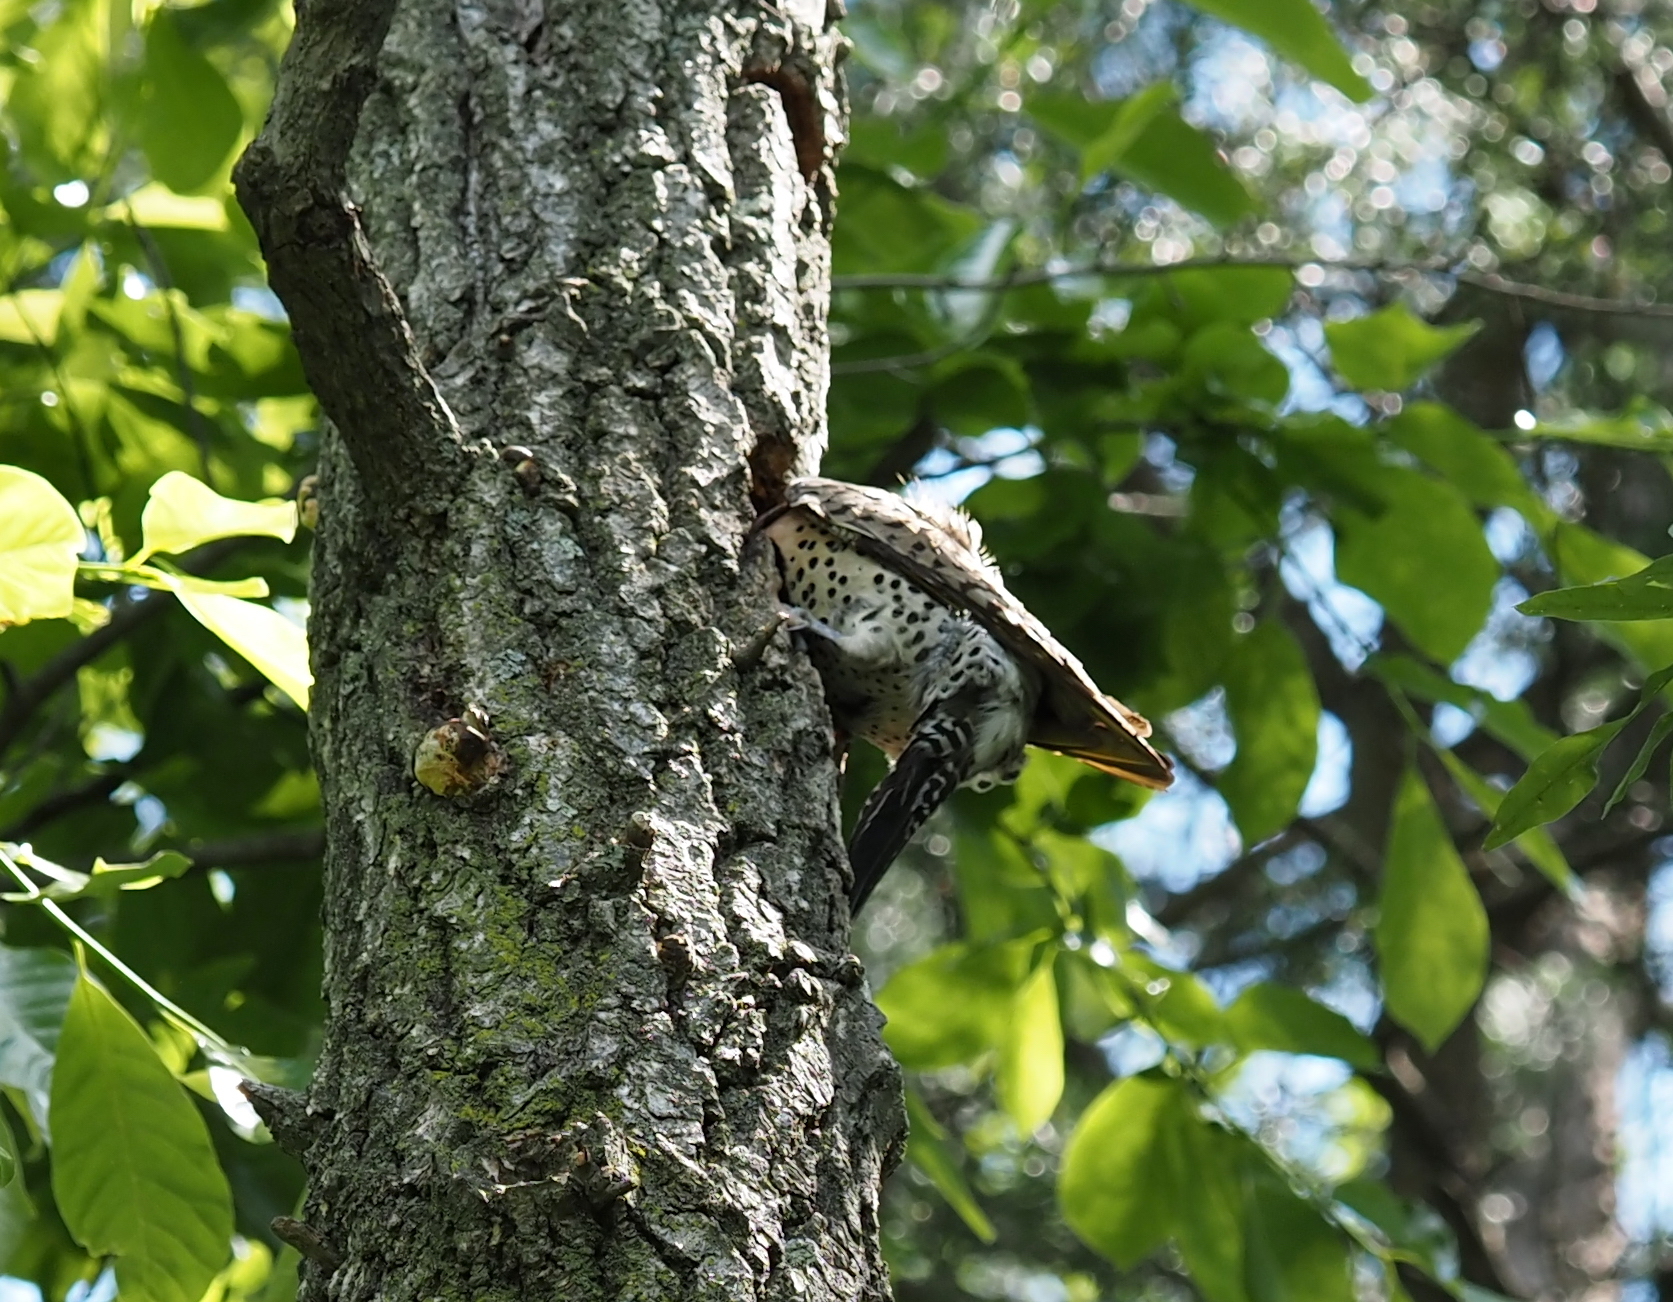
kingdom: Animalia
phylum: Chordata
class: Aves
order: Piciformes
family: Picidae
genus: Colaptes
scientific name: Colaptes auratus
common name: Northern flicker
